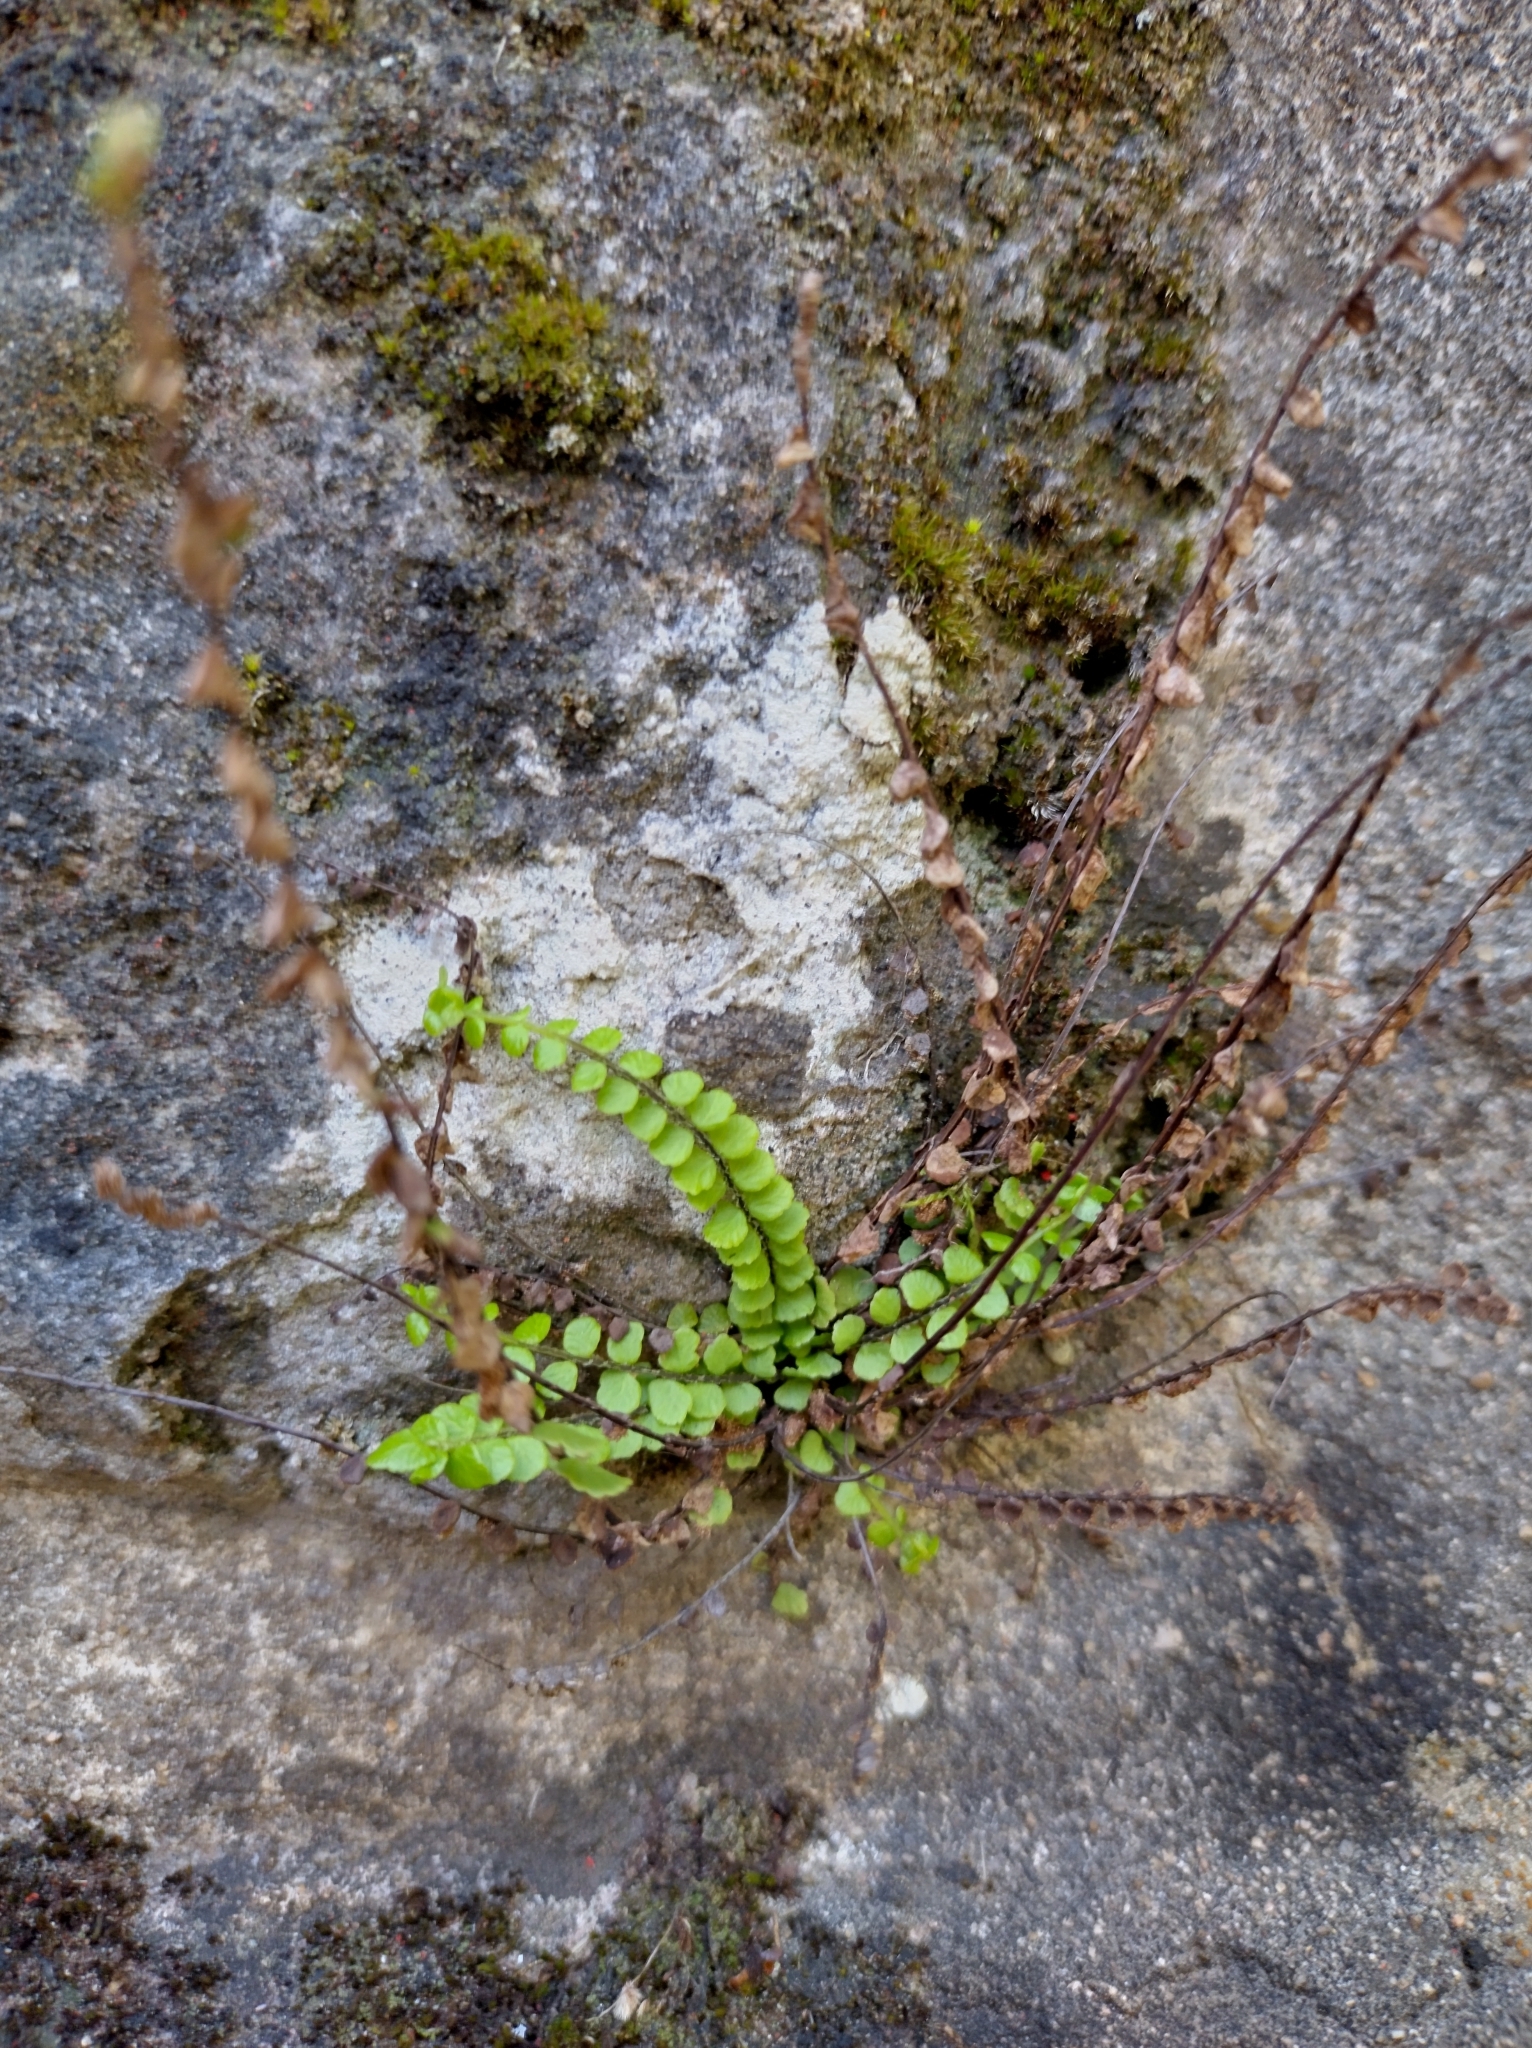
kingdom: Plantae
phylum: Tracheophyta
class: Polypodiopsida
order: Polypodiales
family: Aspleniaceae
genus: Asplenium
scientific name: Asplenium trichomanes
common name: Maidenhair spleenwort
